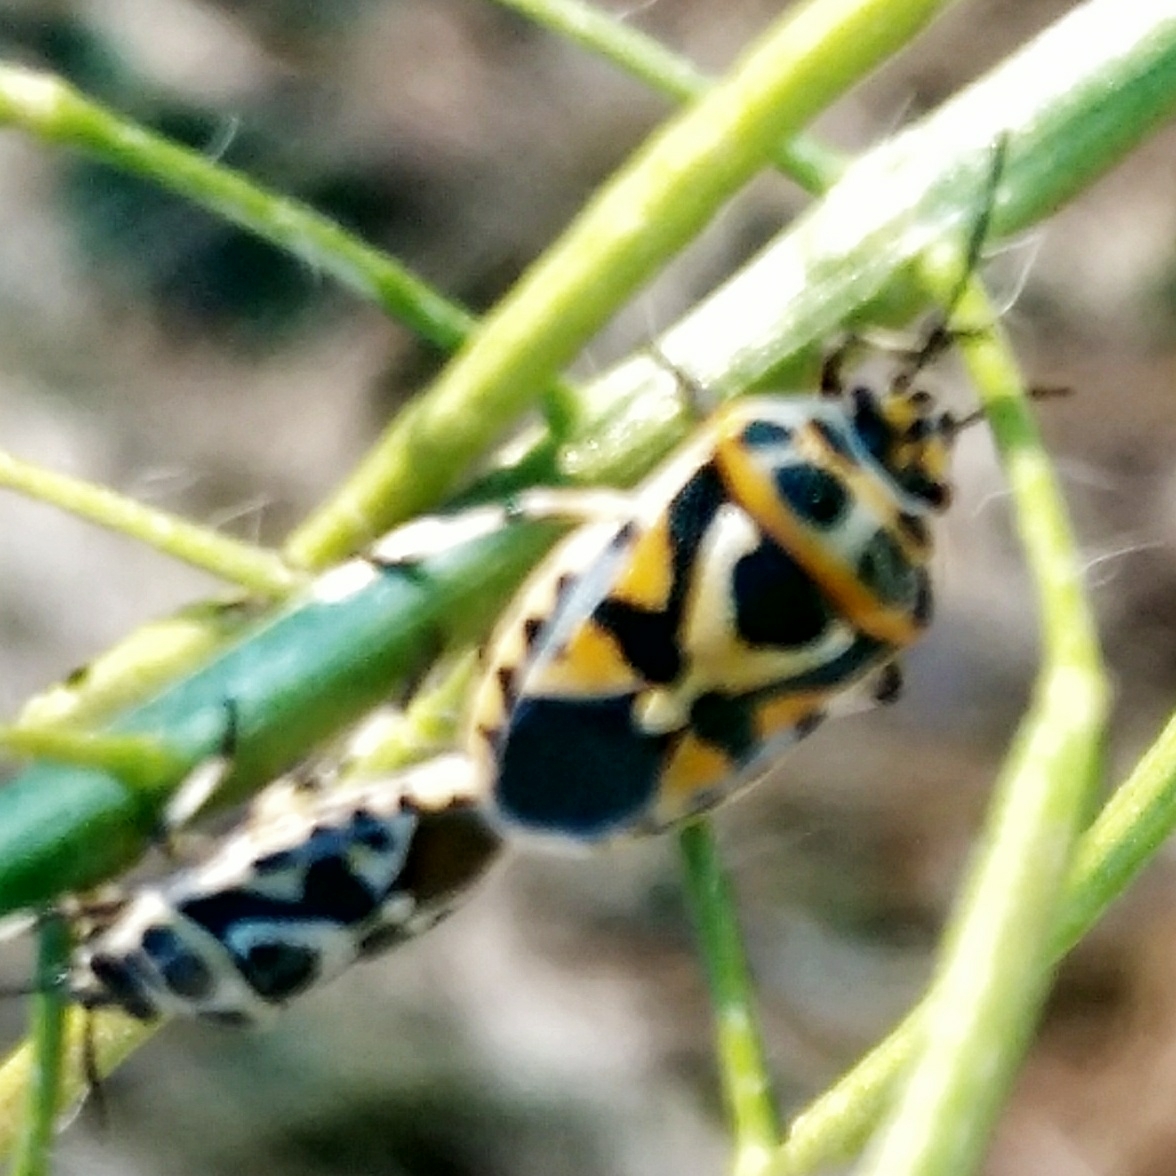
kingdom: Animalia
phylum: Arthropoda
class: Insecta
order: Hemiptera
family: Pentatomidae
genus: Eurydema
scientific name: Eurydema ornata
